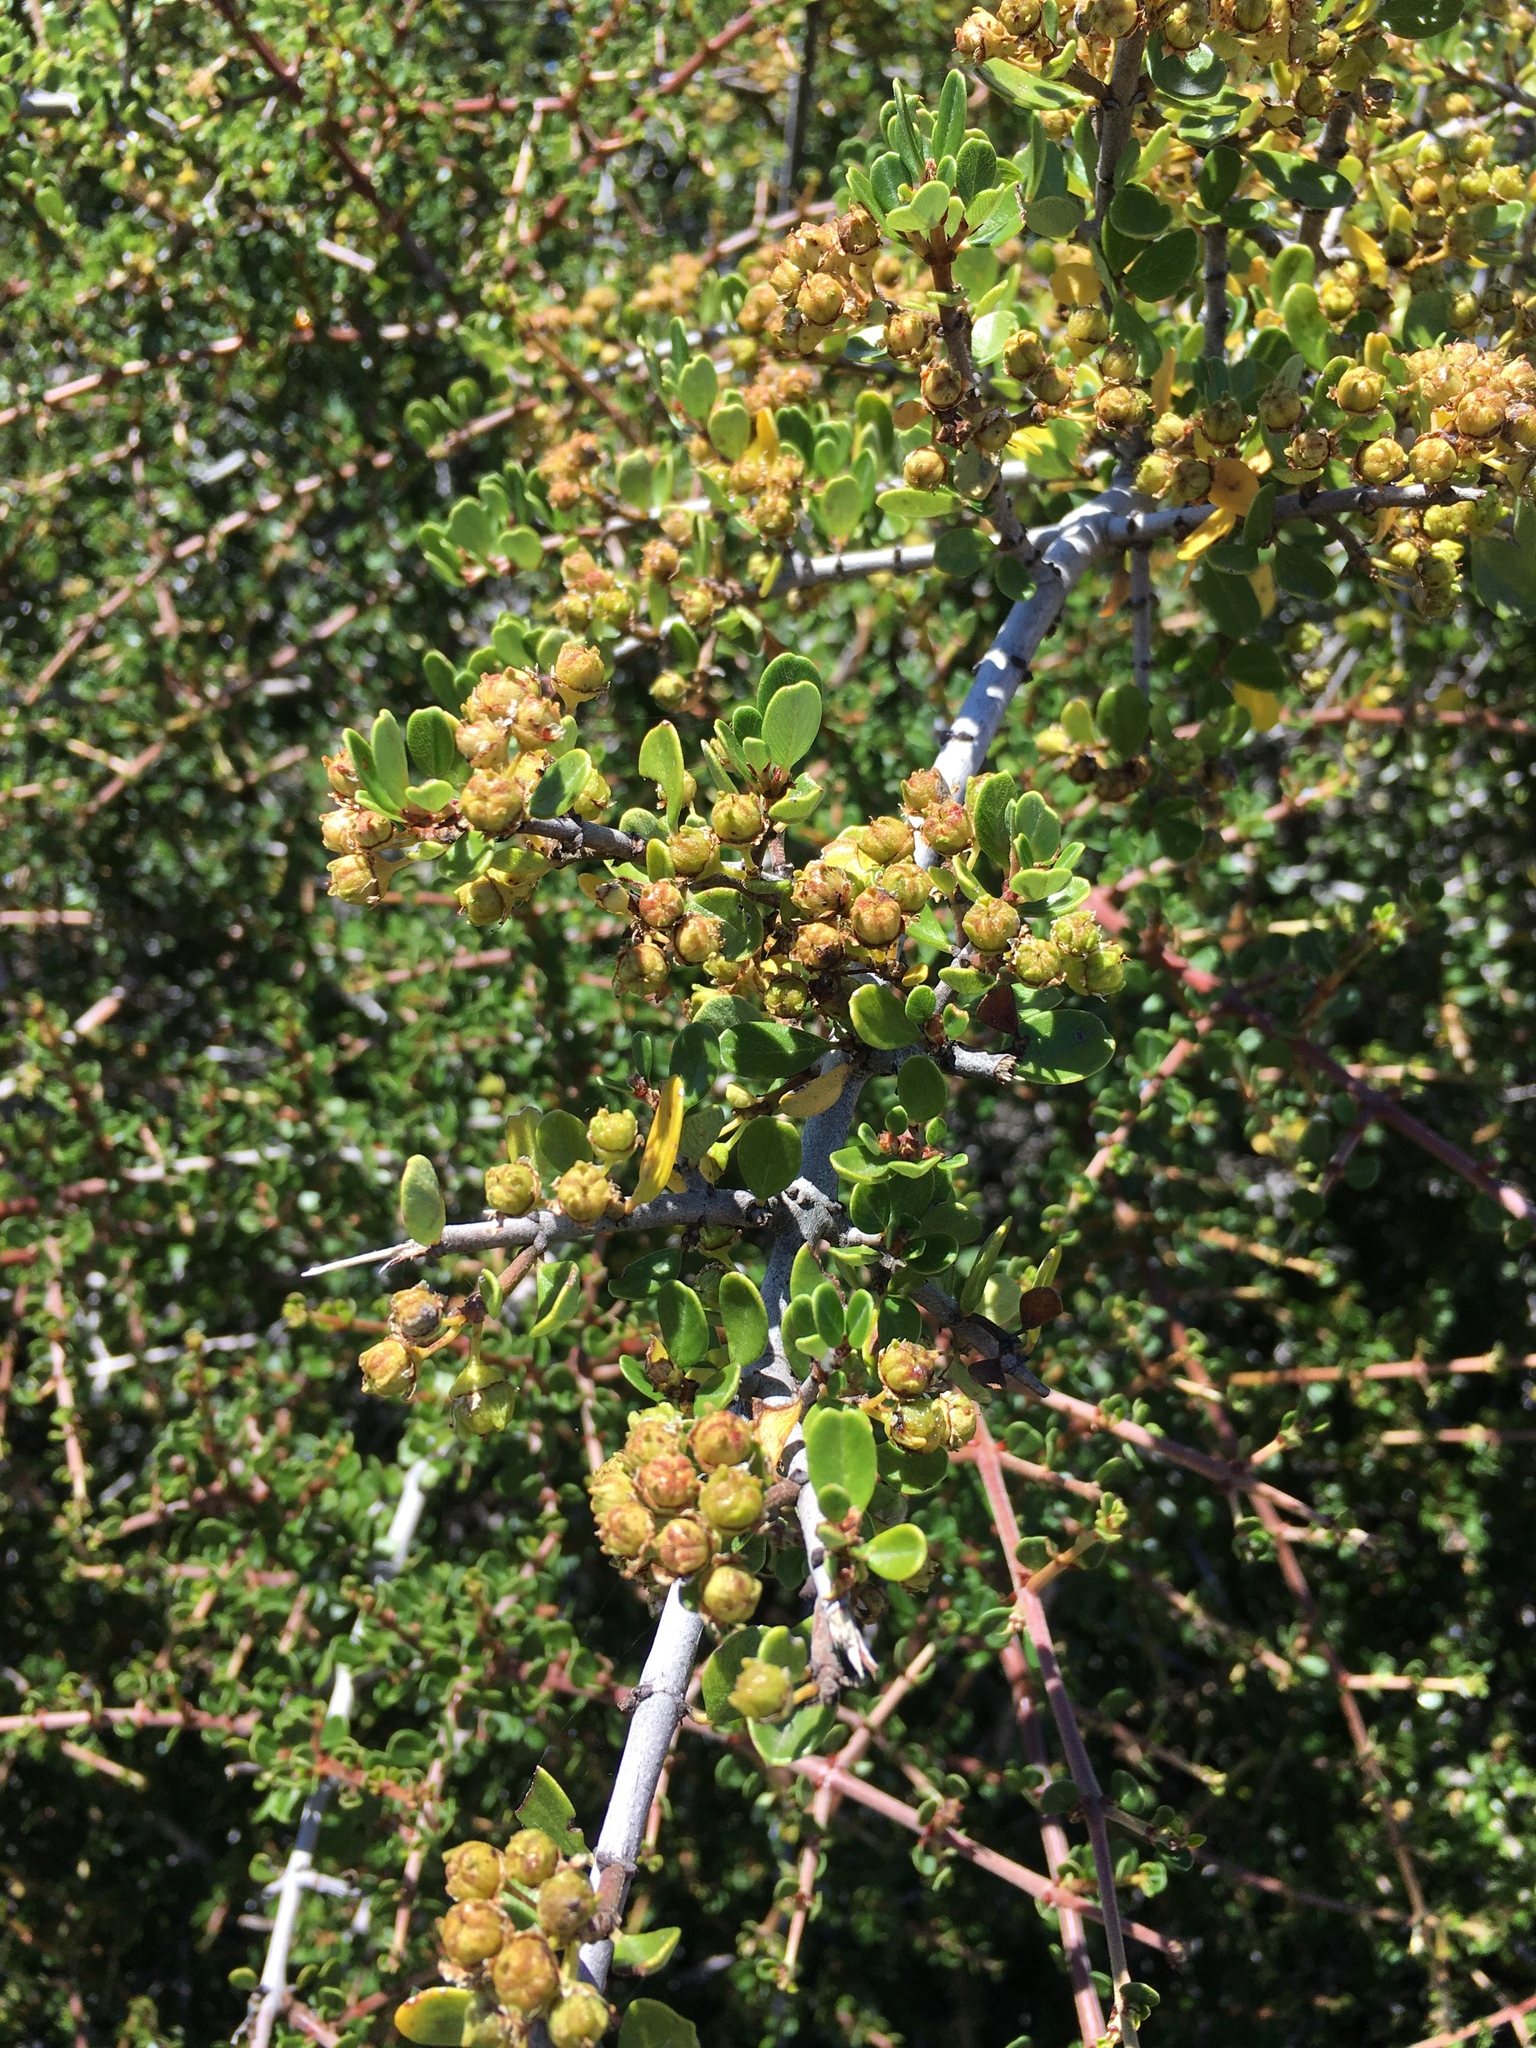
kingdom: Plantae
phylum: Tracheophyta
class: Magnoliopsida
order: Rosales
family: Rhamnaceae
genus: Ceanothus
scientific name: Ceanothus cuneatus
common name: Cuneate ceanothus
